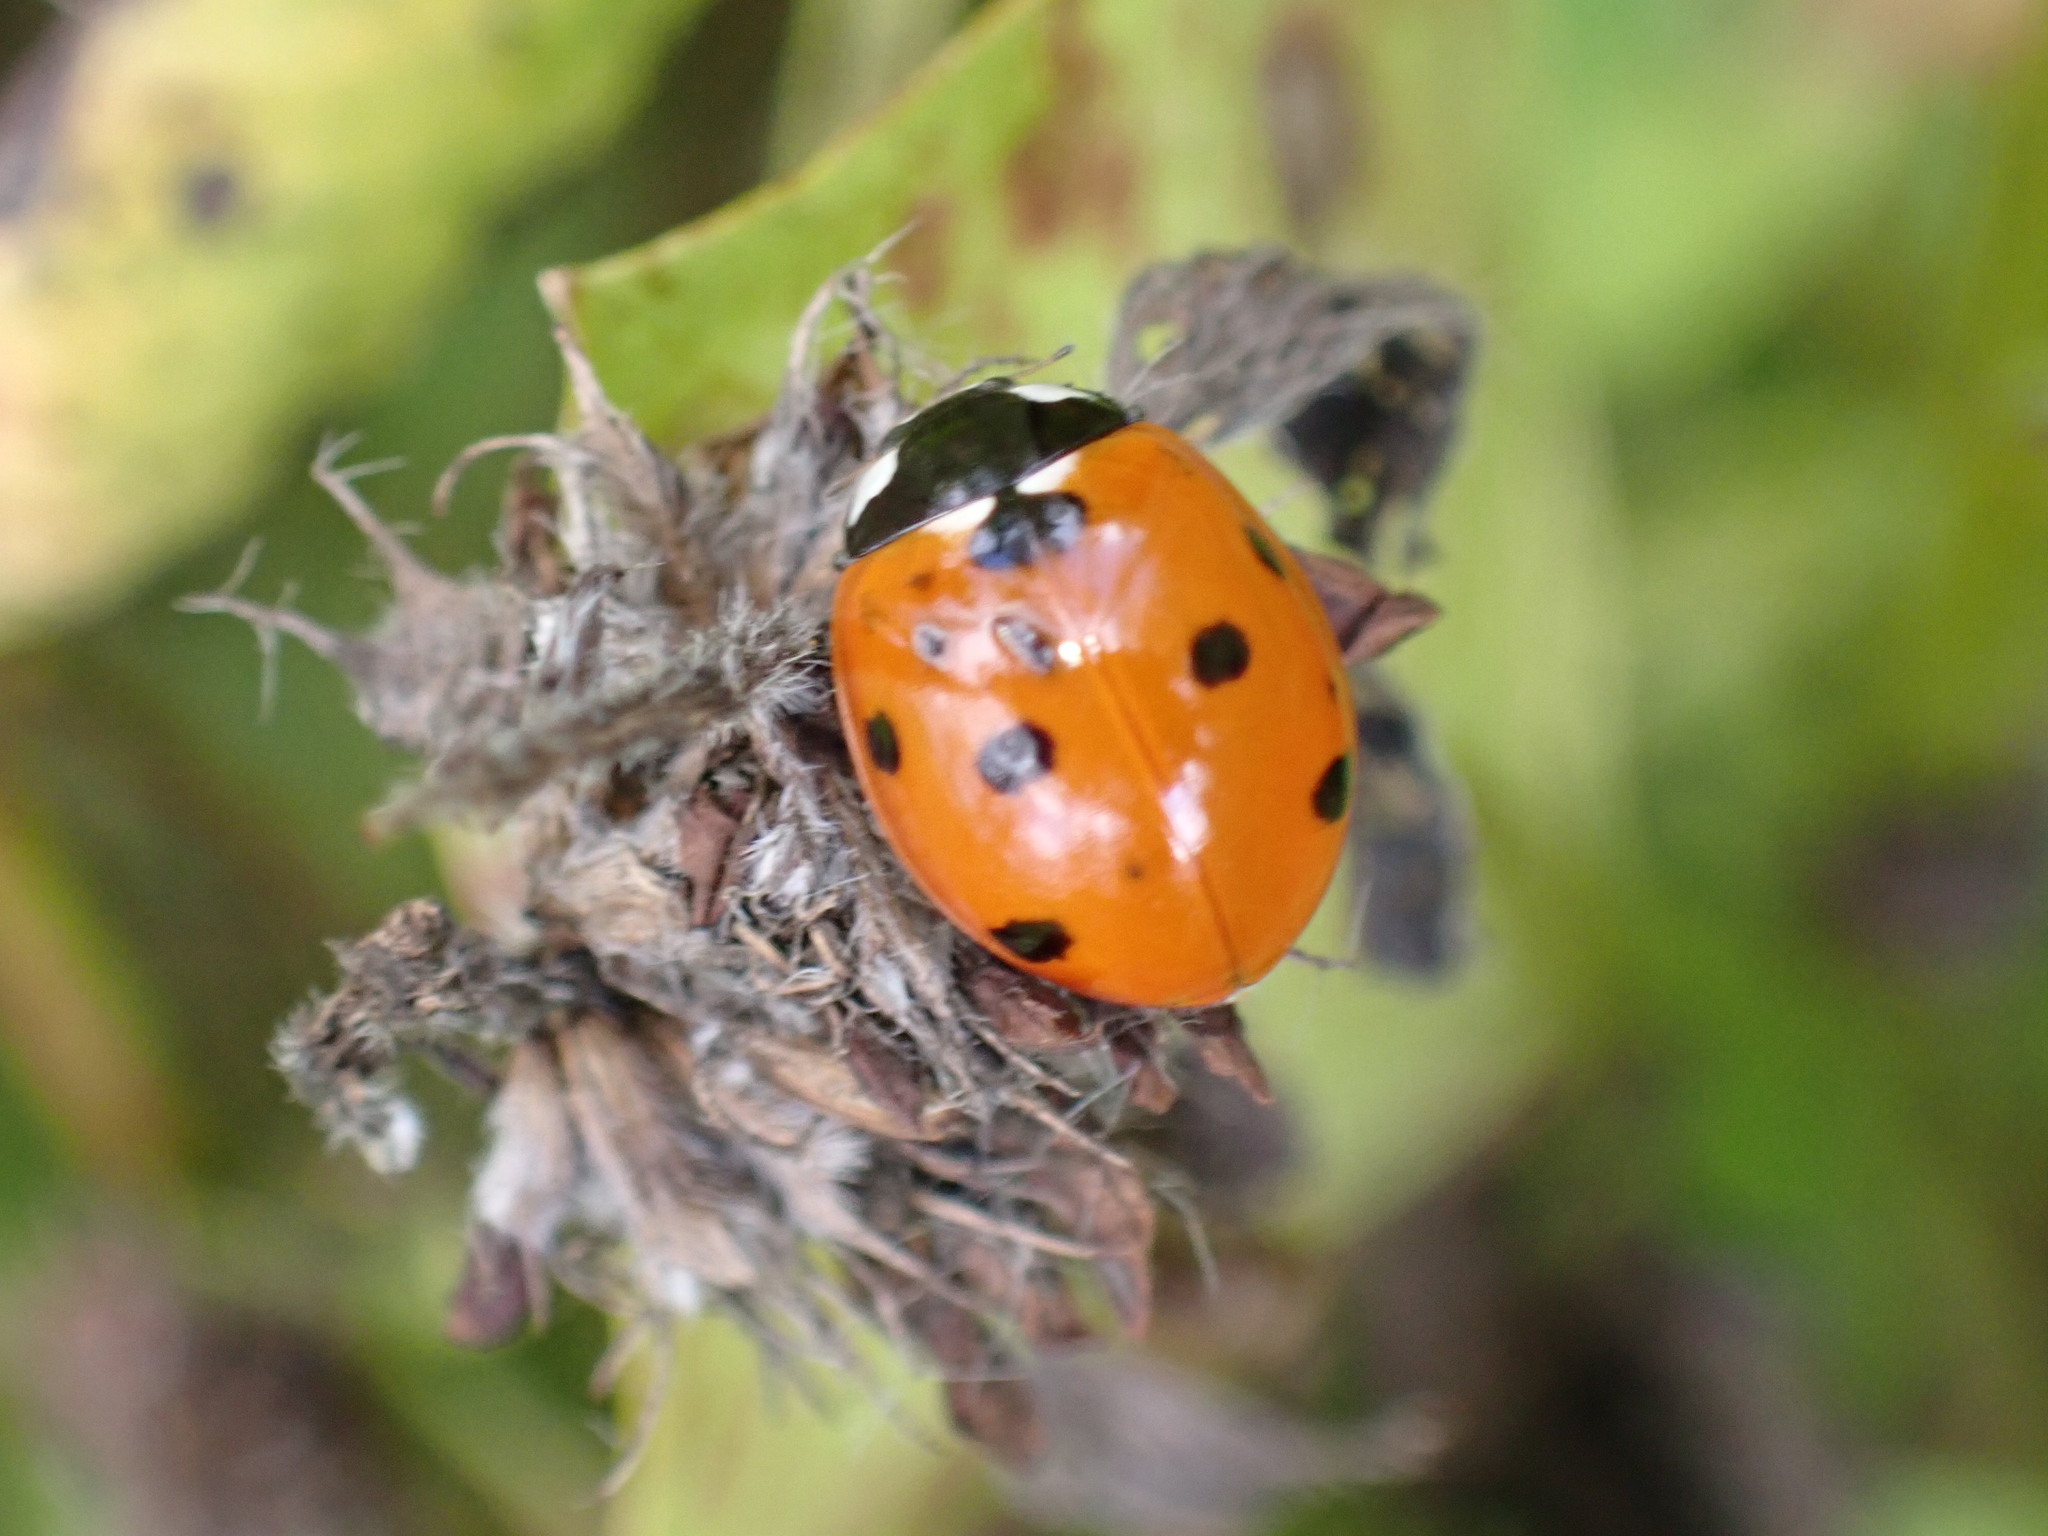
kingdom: Animalia
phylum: Arthropoda
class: Insecta
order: Coleoptera
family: Coccinellidae
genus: Coccinella
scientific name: Coccinella septempunctata
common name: Sevenspotted lady beetle
